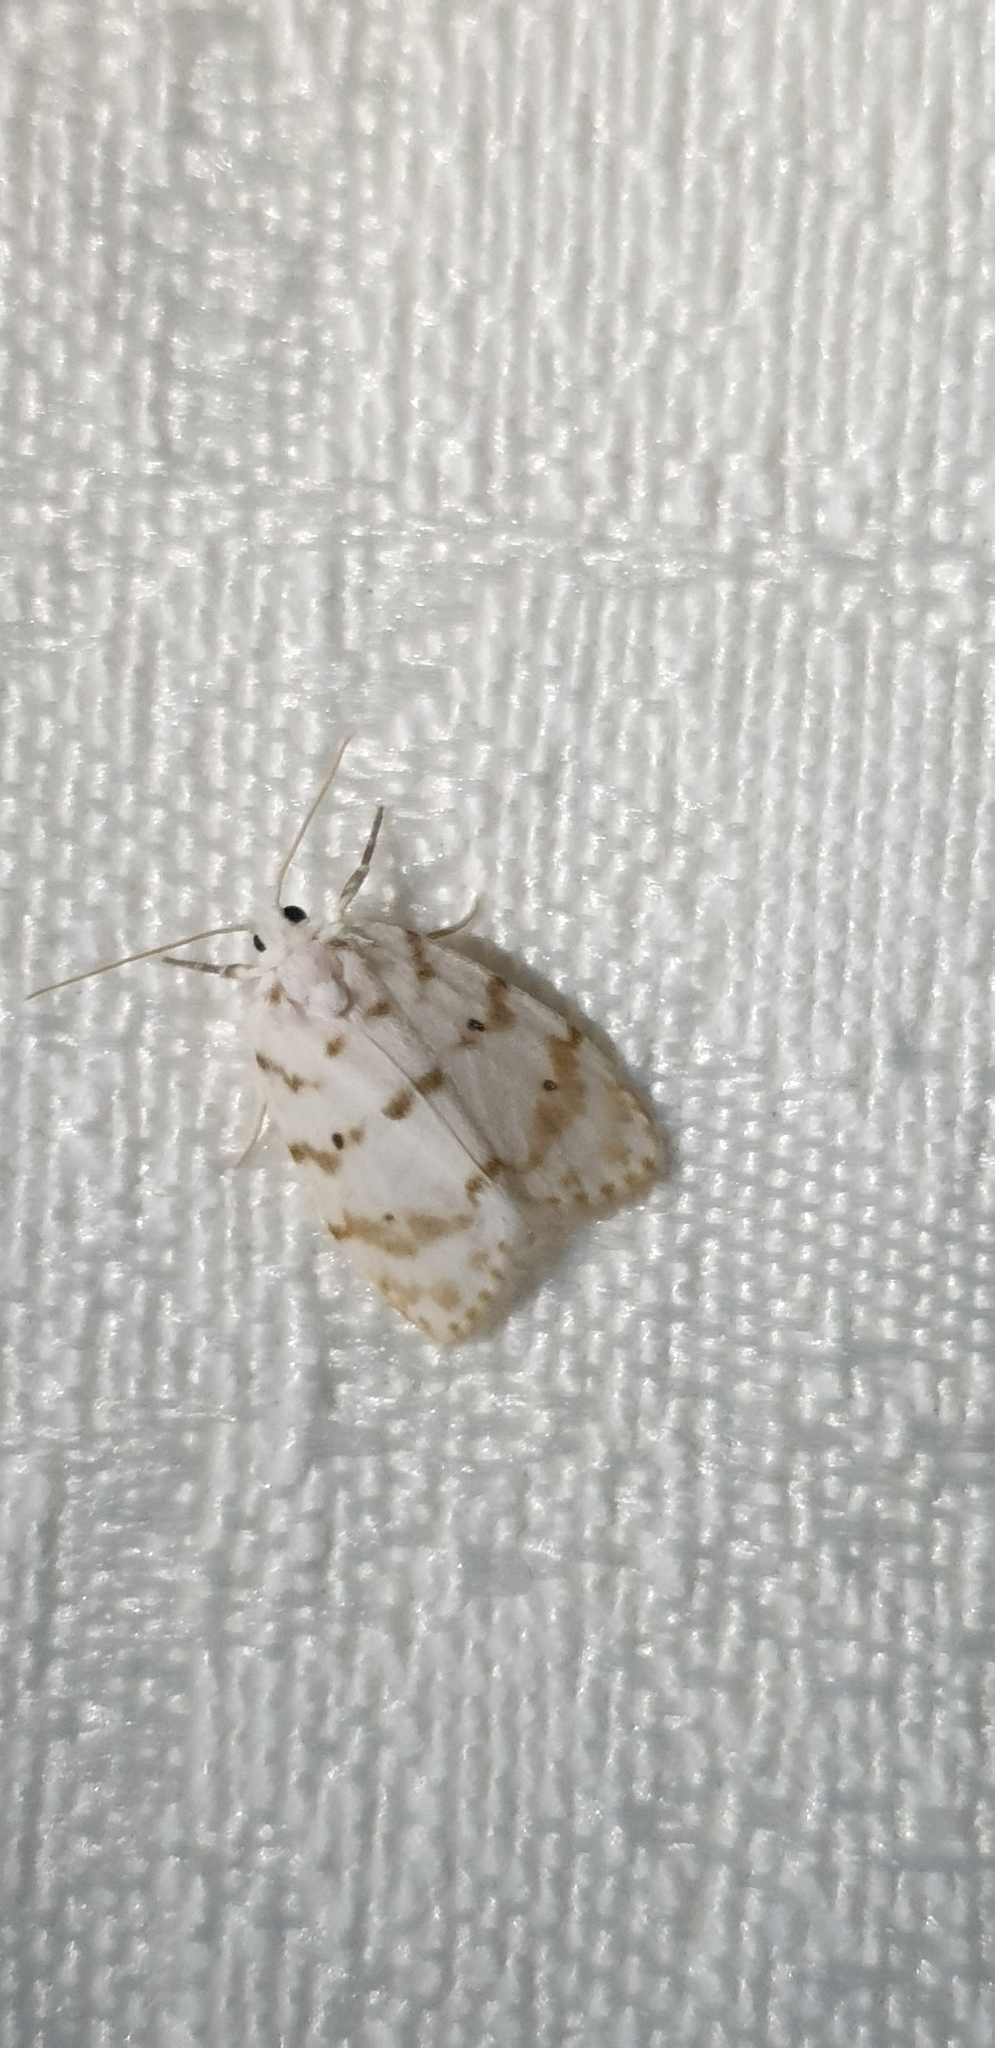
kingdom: Animalia
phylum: Arthropoda
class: Insecta
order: Lepidoptera
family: Erebidae
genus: Schistophleps
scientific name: Schistophleps albida
